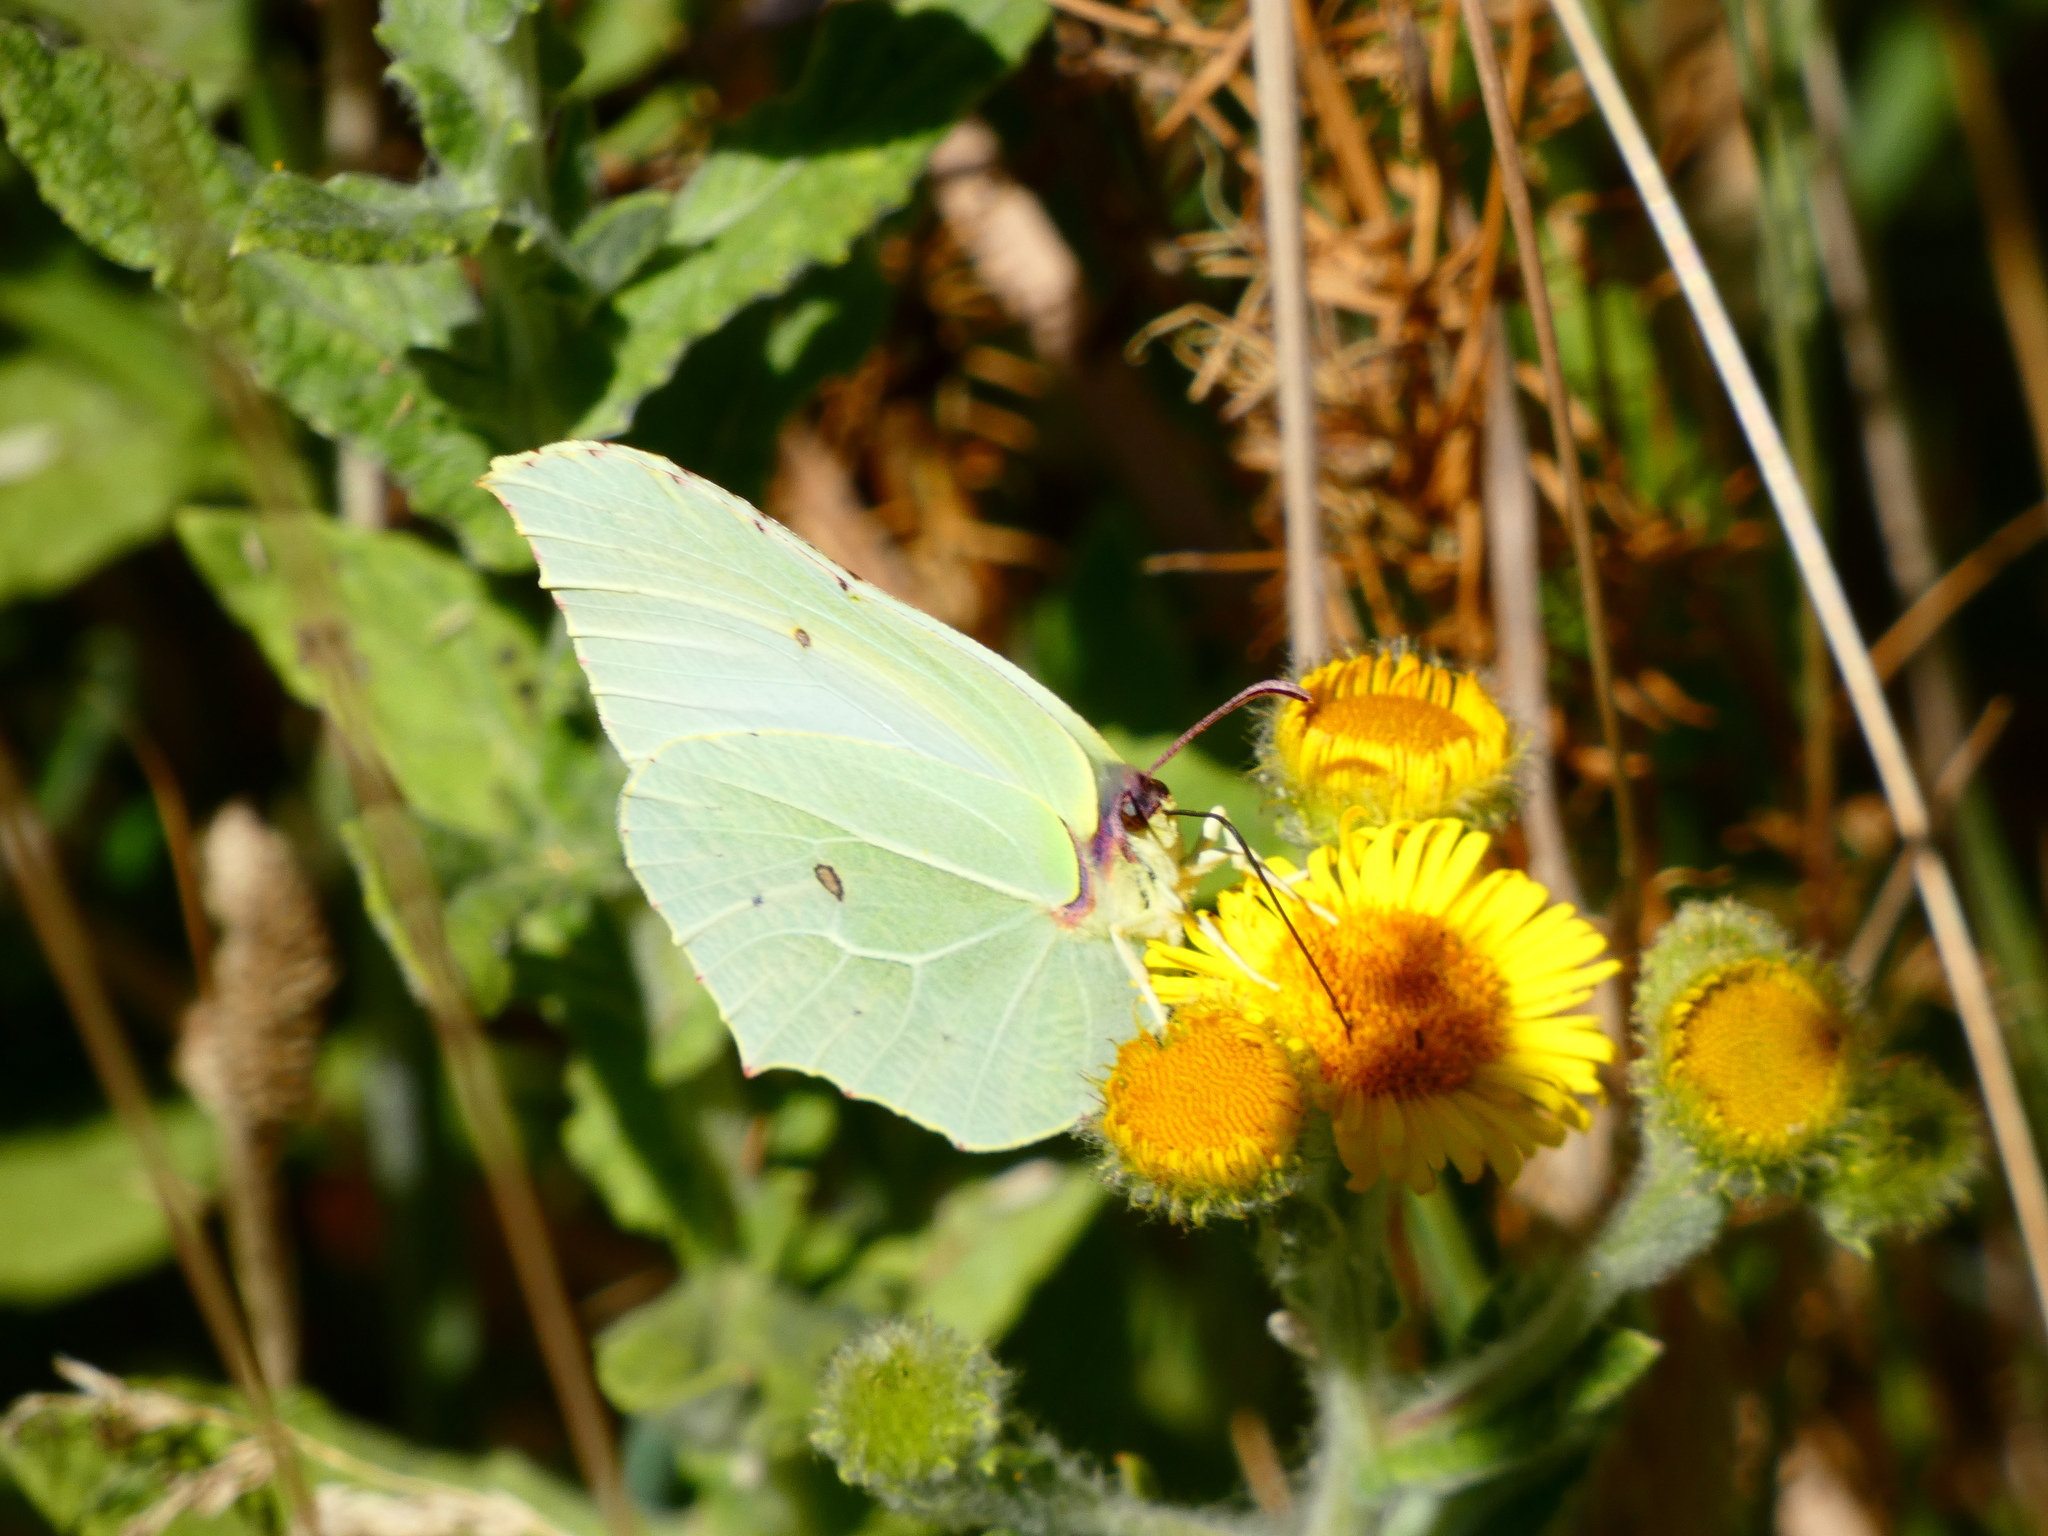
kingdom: Animalia
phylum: Arthropoda
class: Insecta
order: Lepidoptera
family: Pieridae
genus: Gonepteryx
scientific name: Gonepteryx rhamni
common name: Brimstone
